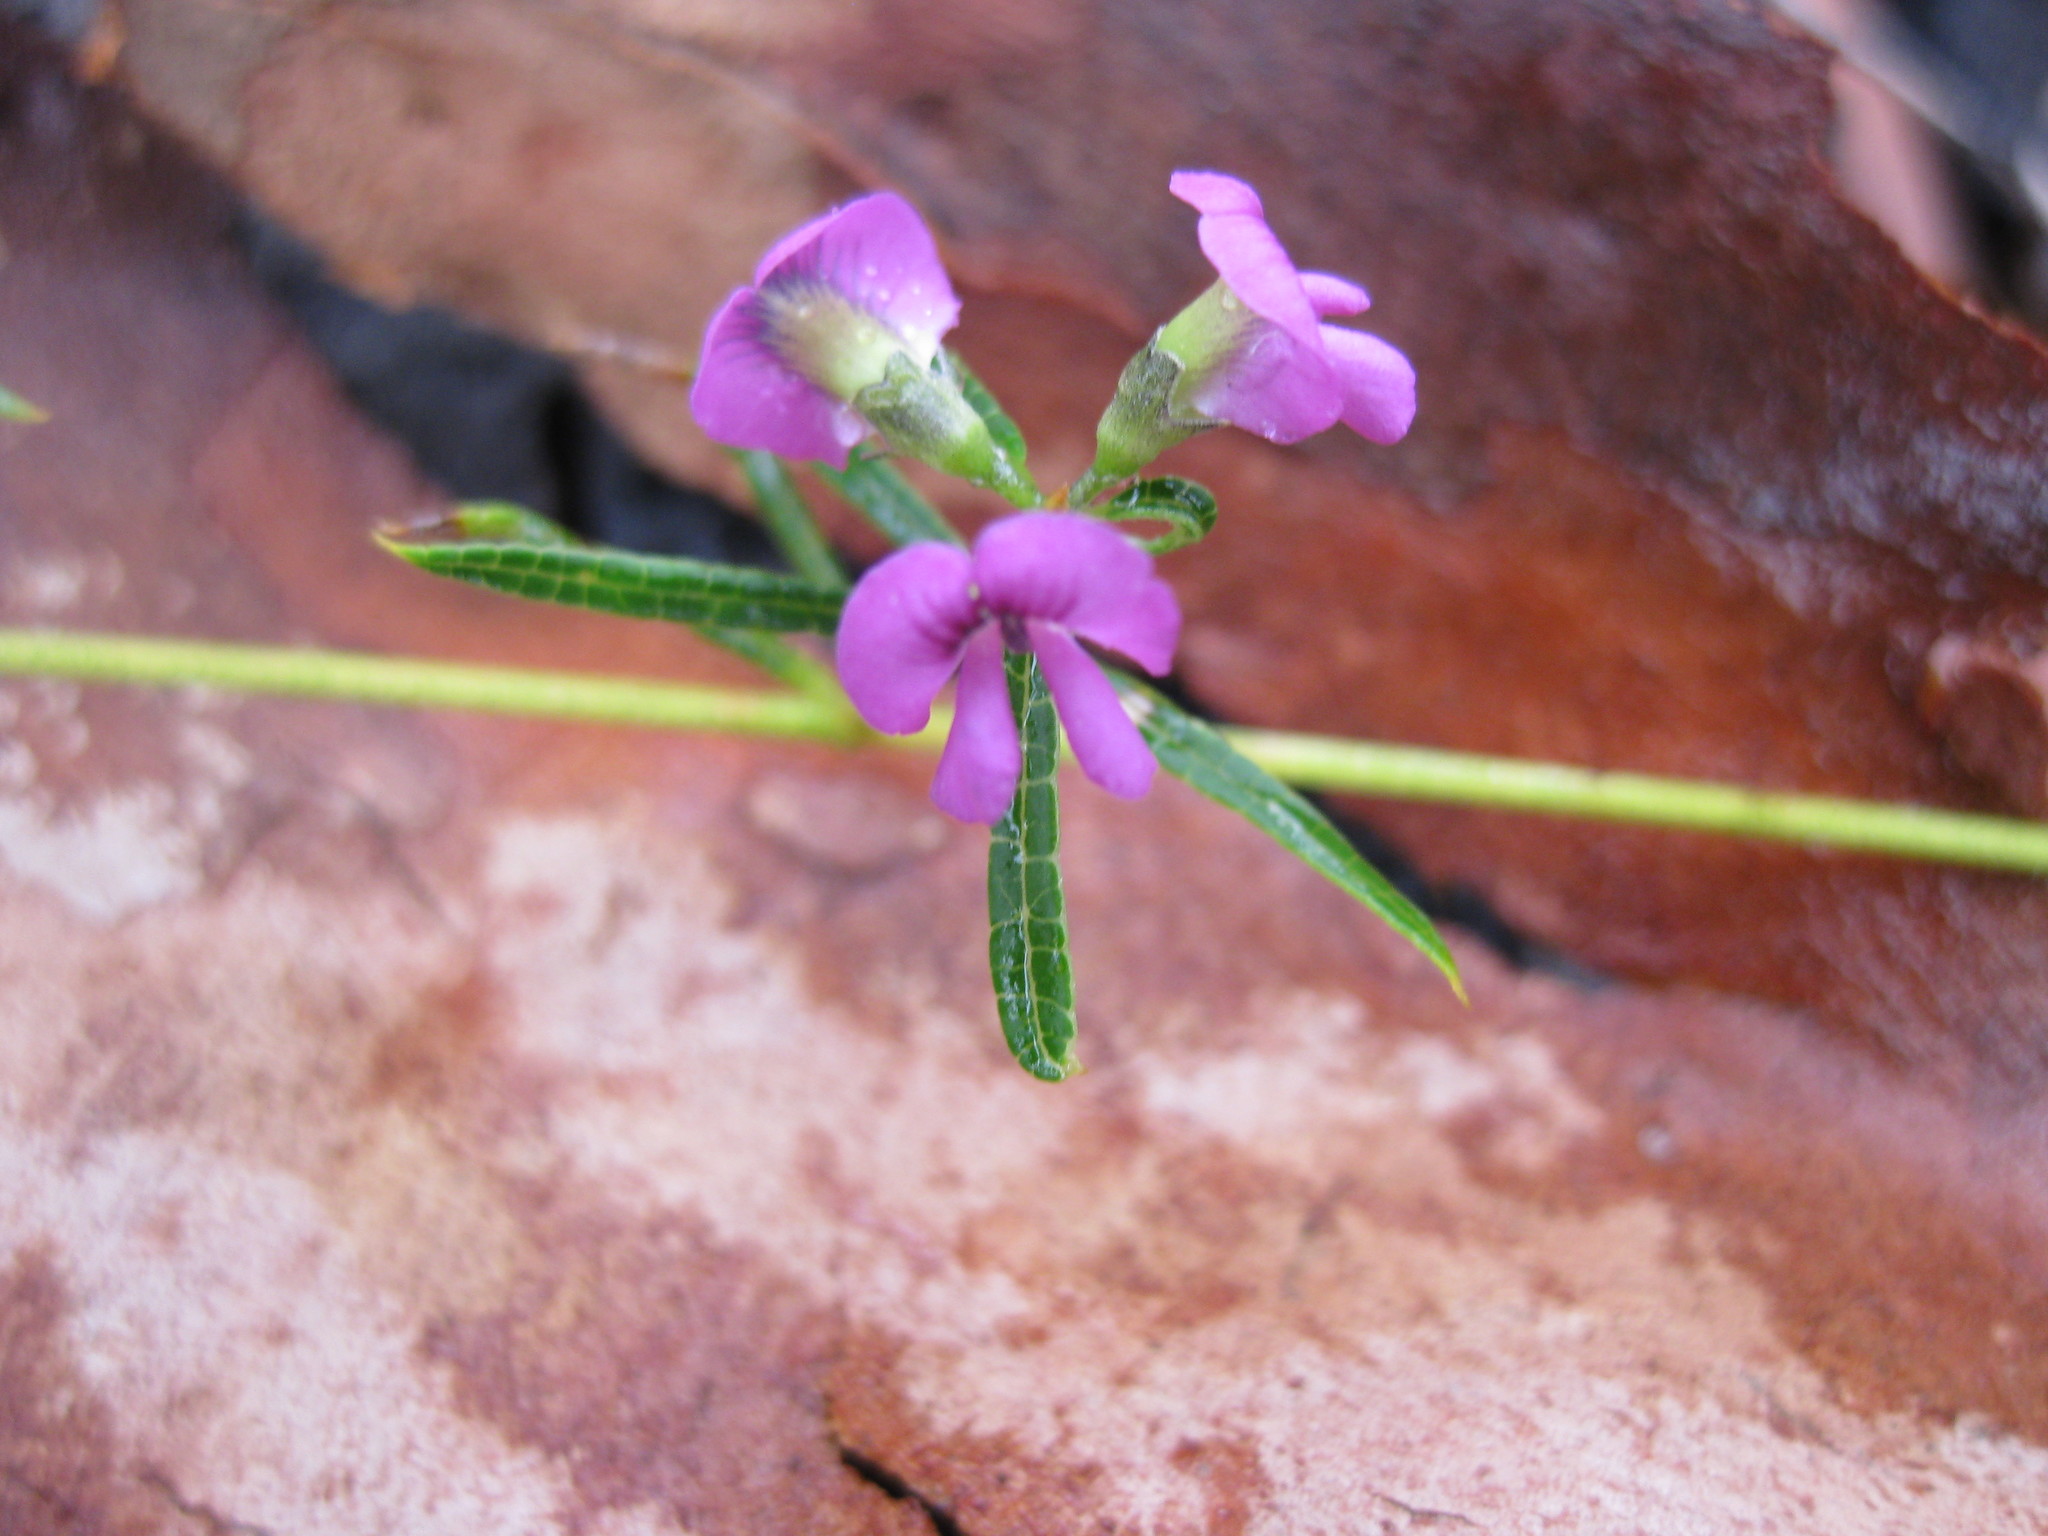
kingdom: Plantae
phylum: Tracheophyta
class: Magnoliopsida
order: Fabales
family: Fabaceae
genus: Mirbelia
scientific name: Mirbelia rubiifolia
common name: Heathy mirbelia
